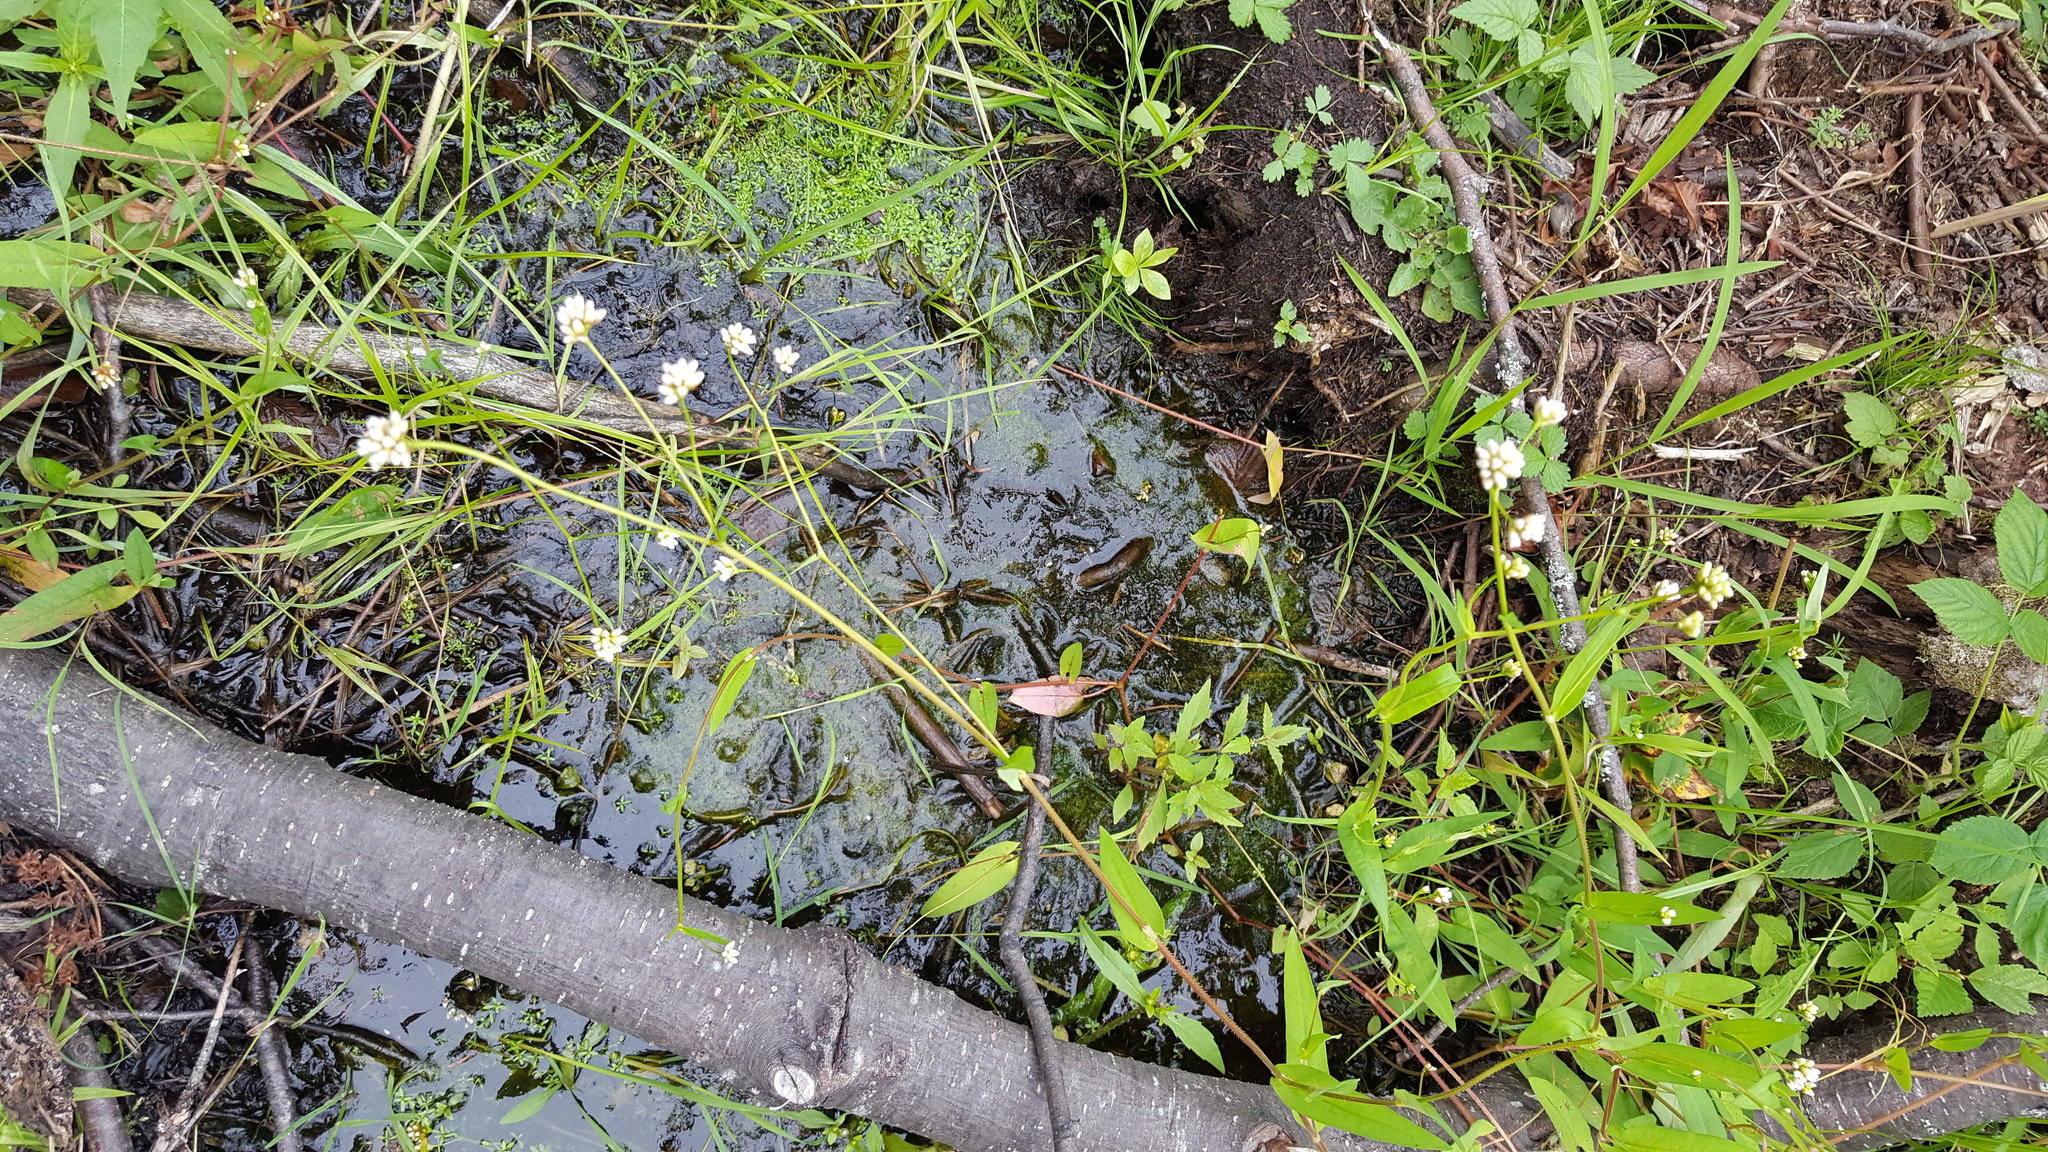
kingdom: Plantae
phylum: Tracheophyta
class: Magnoliopsida
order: Caryophyllales
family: Polygonaceae
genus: Persicaria
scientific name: Persicaria sagittata
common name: American tearthumb
